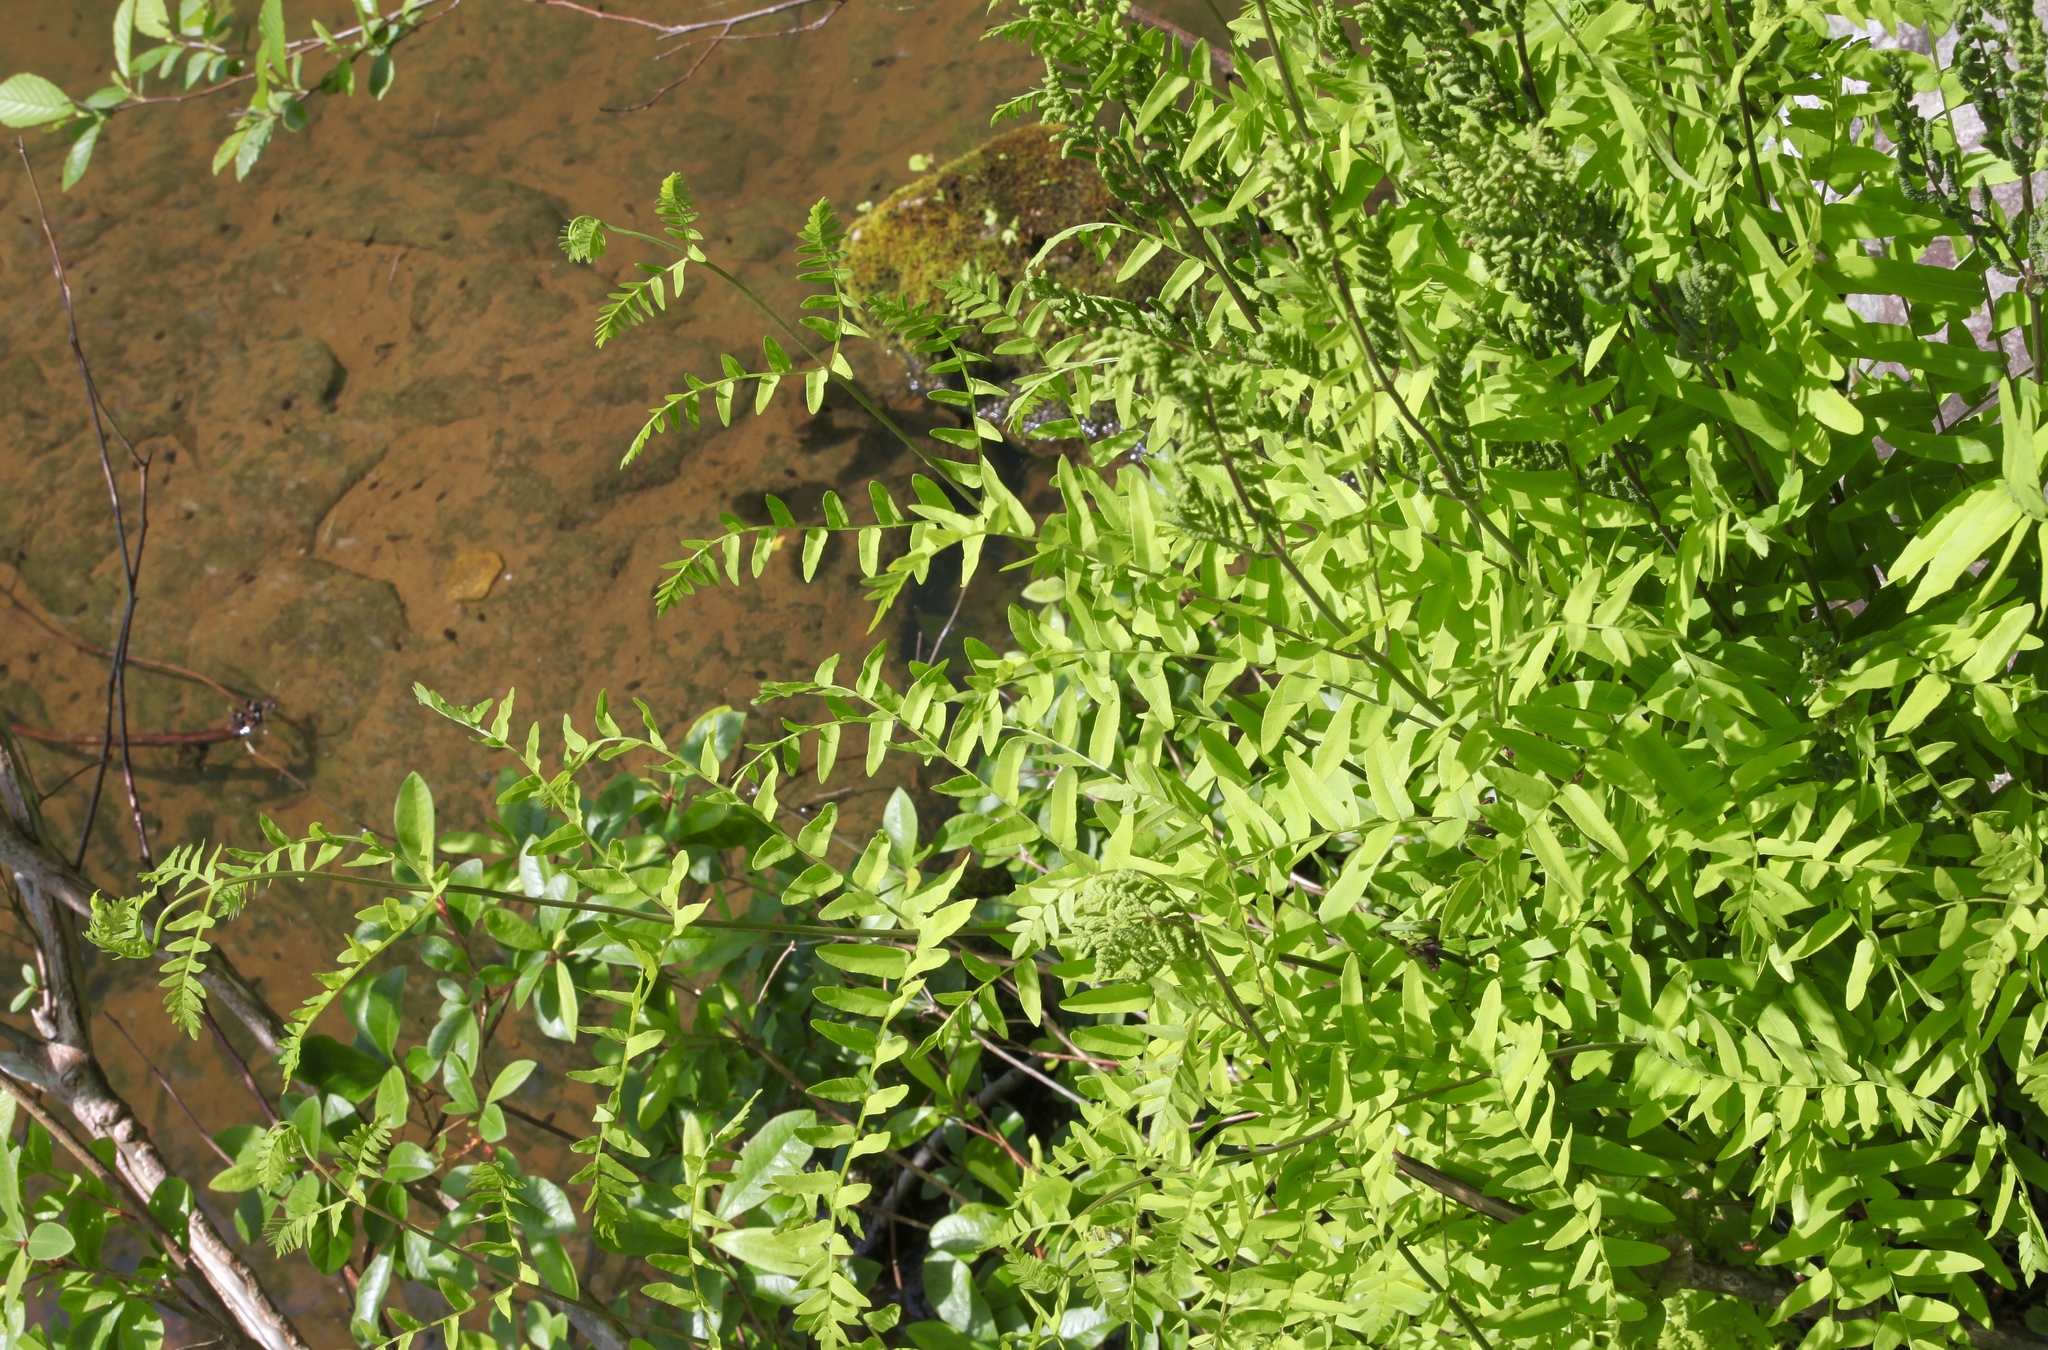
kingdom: Plantae
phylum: Tracheophyta
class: Polypodiopsida
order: Osmundales
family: Osmundaceae
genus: Osmunda
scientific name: Osmunda spectabilis
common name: American royal fern
